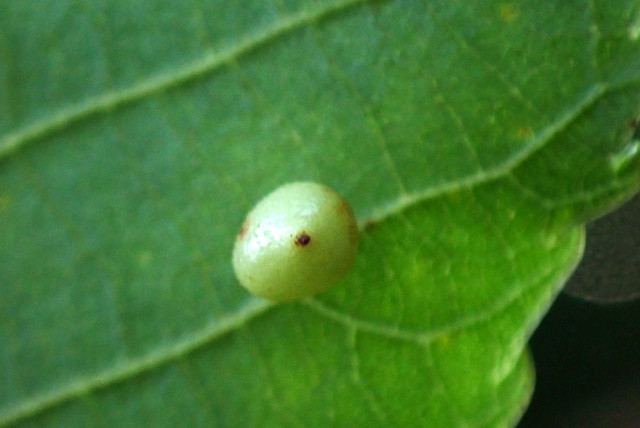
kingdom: Animalia
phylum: Arthropoda
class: Insecta
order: Diptera
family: Cecidomyiidae
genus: Caryomyia
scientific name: Caryomyia caryae
